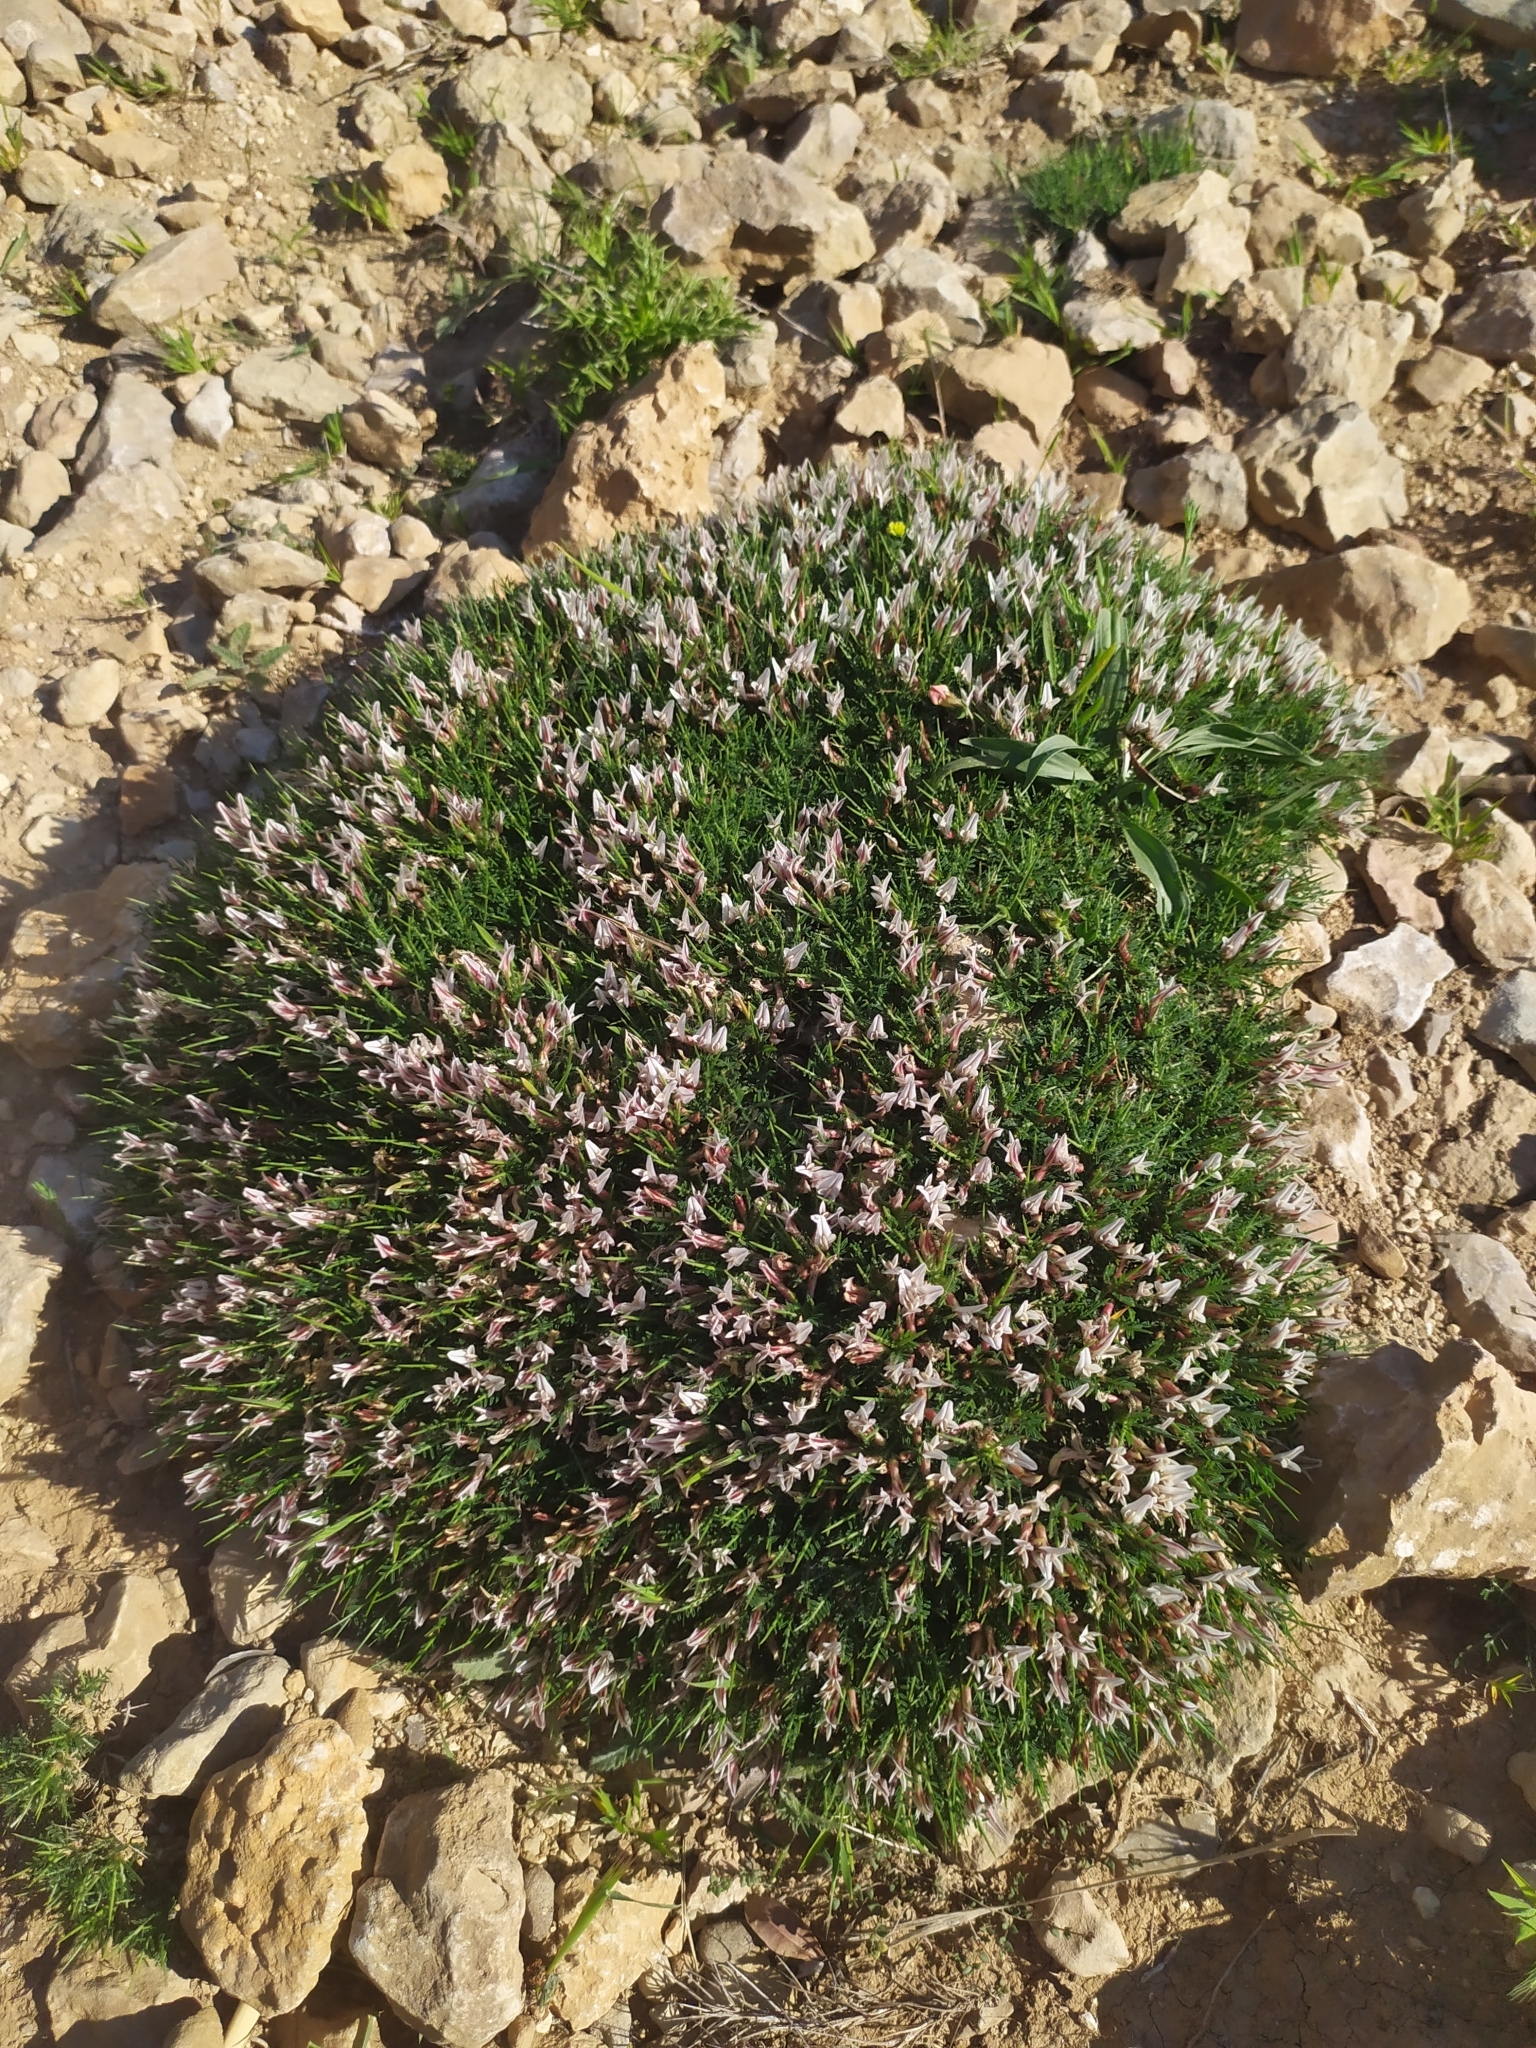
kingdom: Plantae
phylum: Tracheophyta
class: Magnoliopsida
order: Fabales
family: Fabaceae
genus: Astragalus
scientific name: Astragalus balearicus
